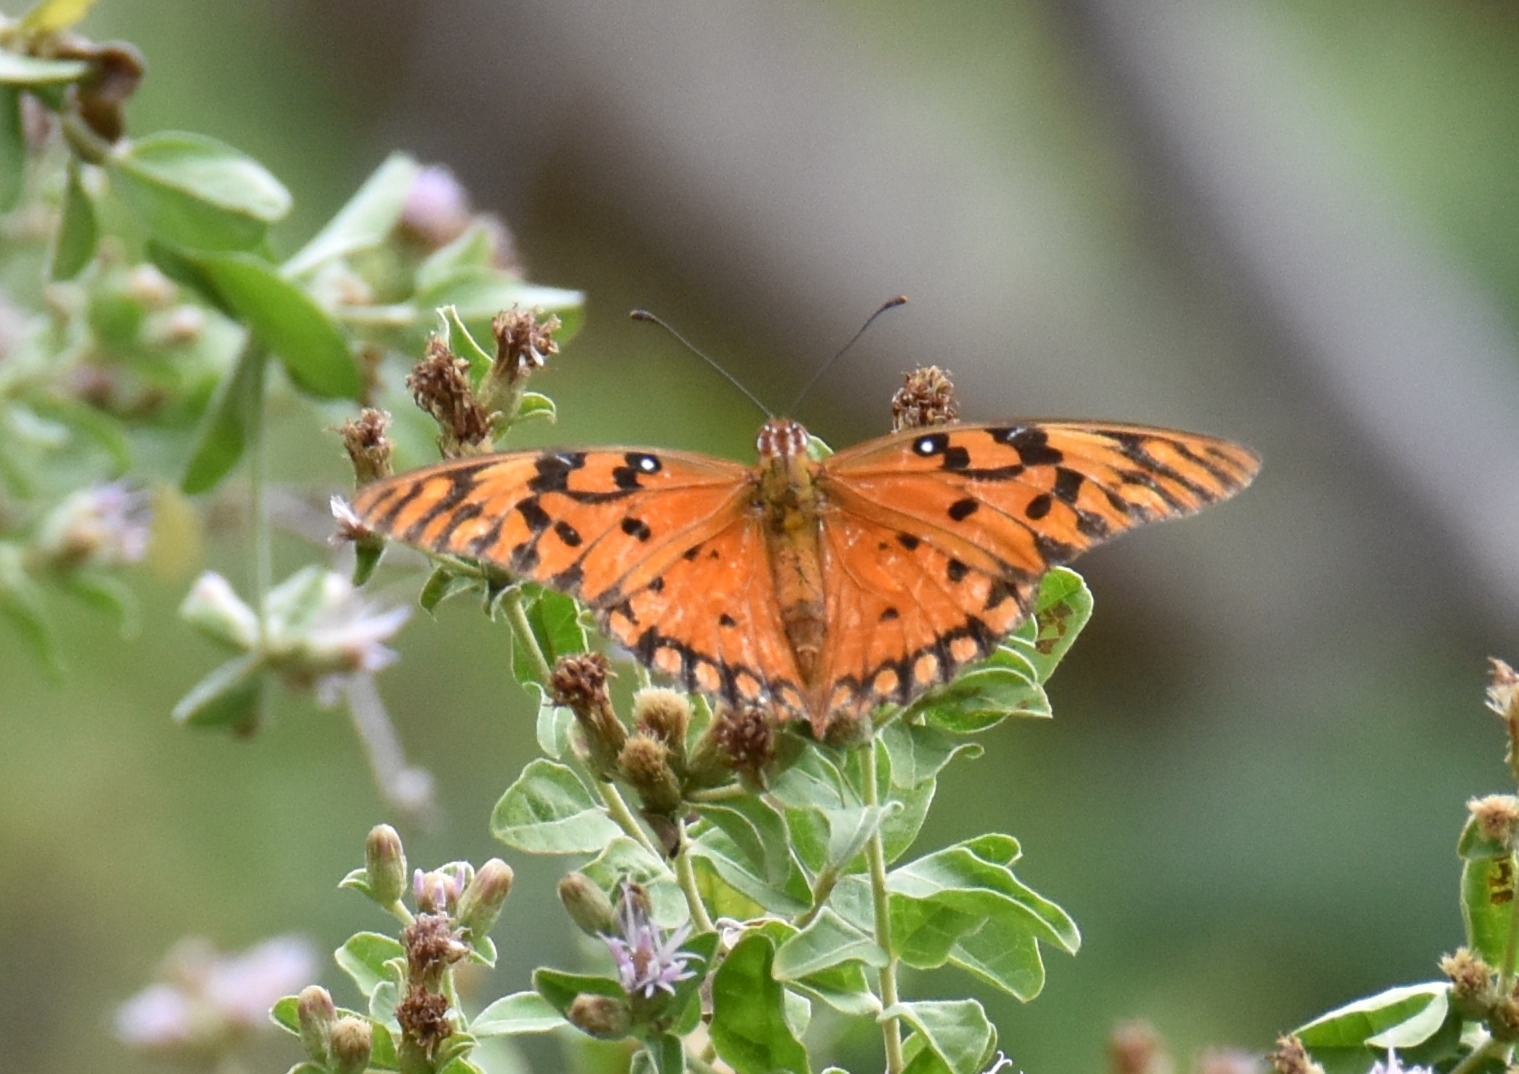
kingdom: Animalia
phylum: Arthropoda
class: Insecta
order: Lepidoptera
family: Nymphalidae
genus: Dione
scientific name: Dione vanillae
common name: Gulf fritillary
